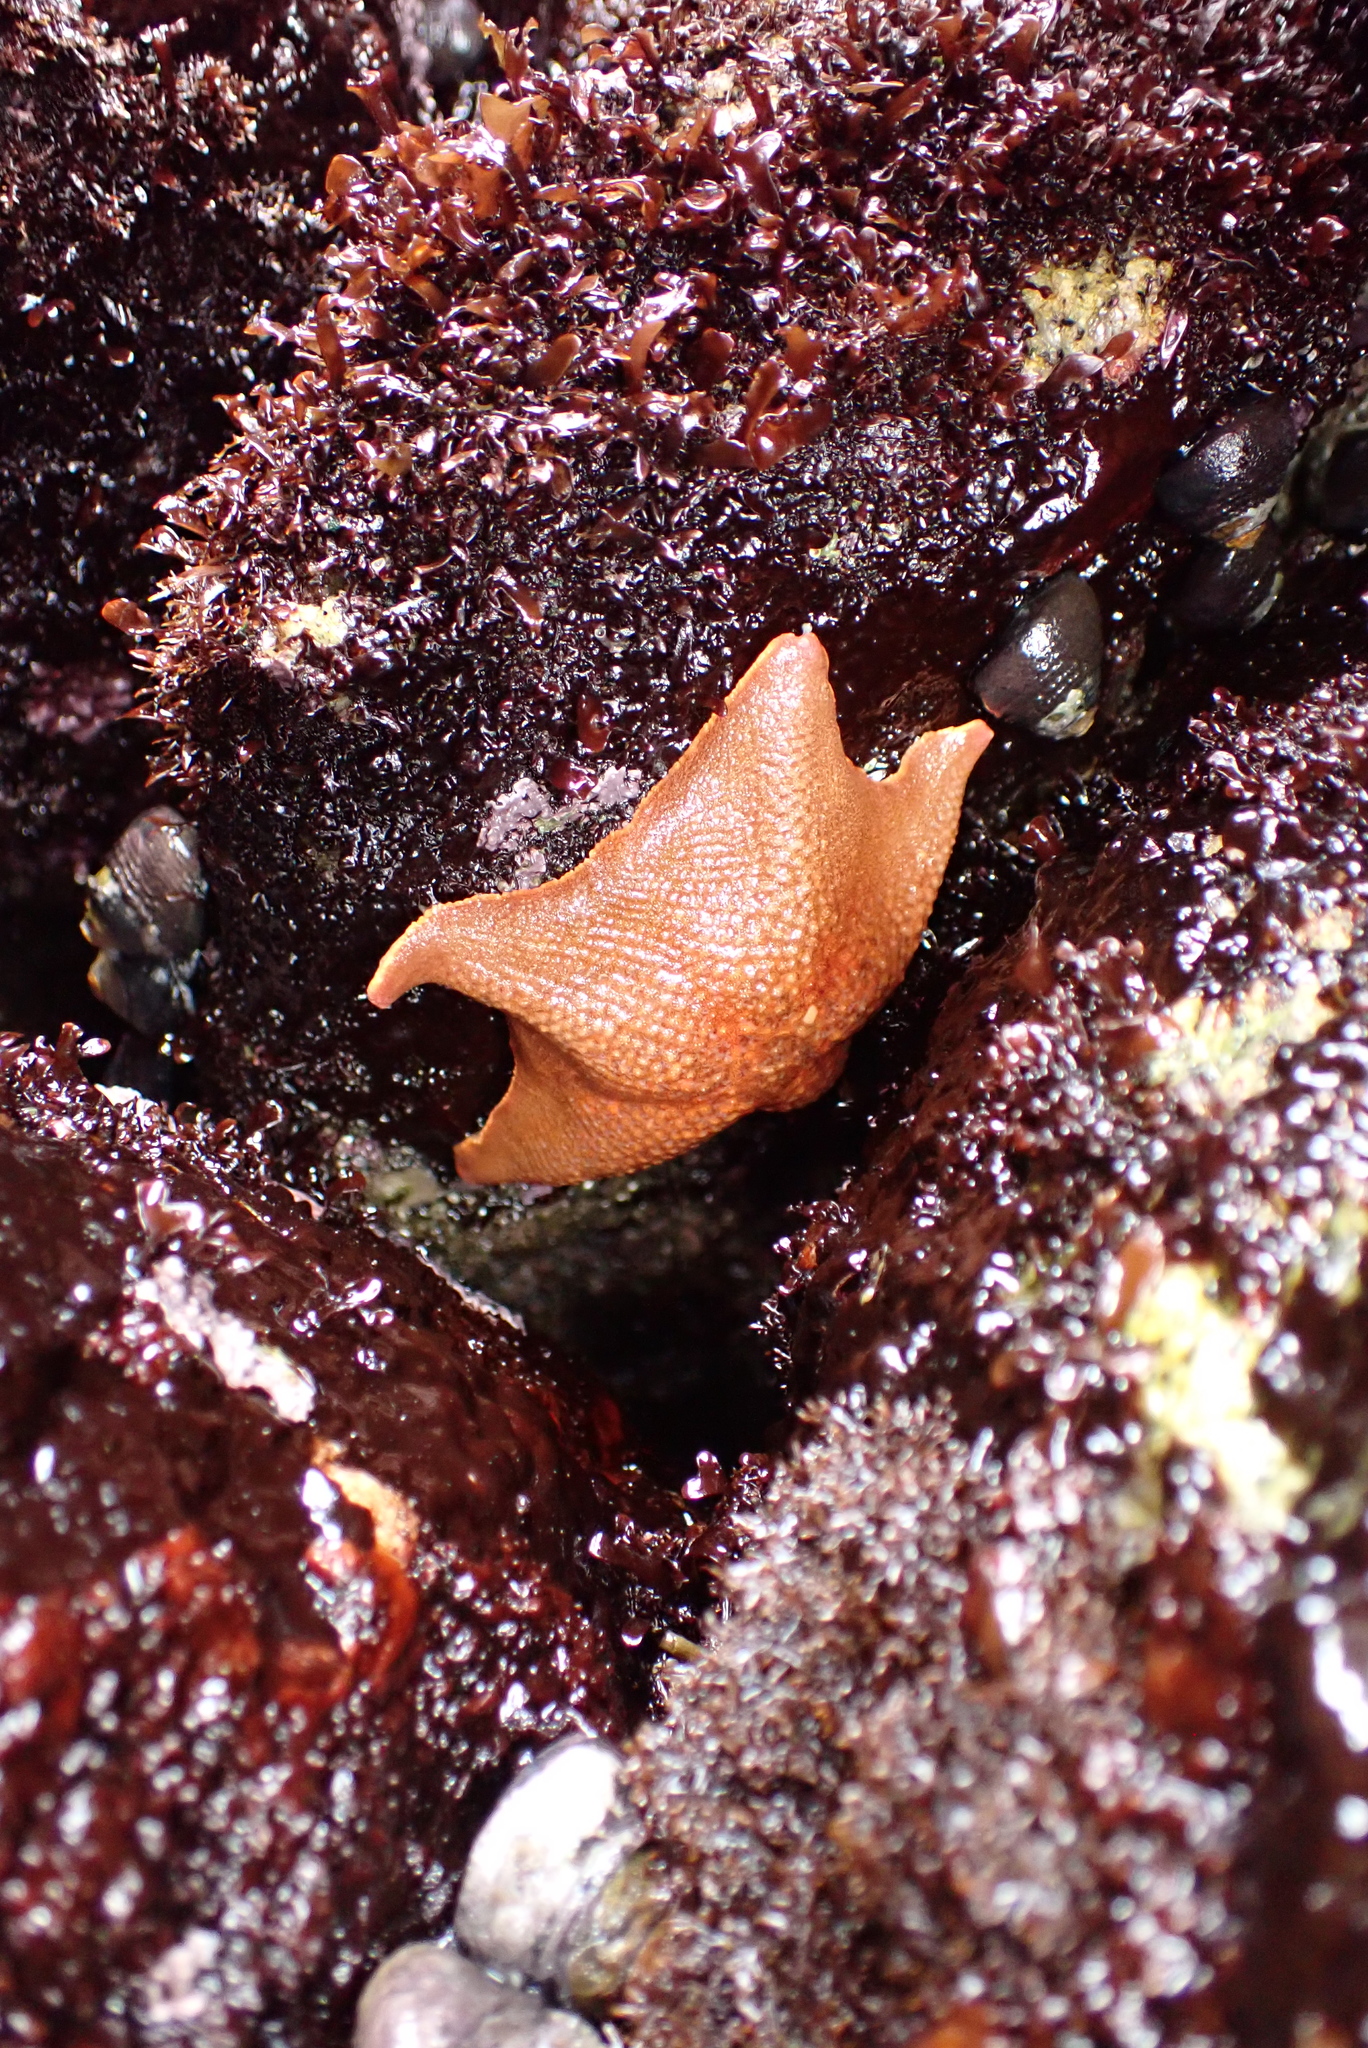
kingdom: Animalia
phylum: Echinodermata
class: Asteroidea
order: Valvatida
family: Asterinidae
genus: Patiria
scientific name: Patiria miniata
